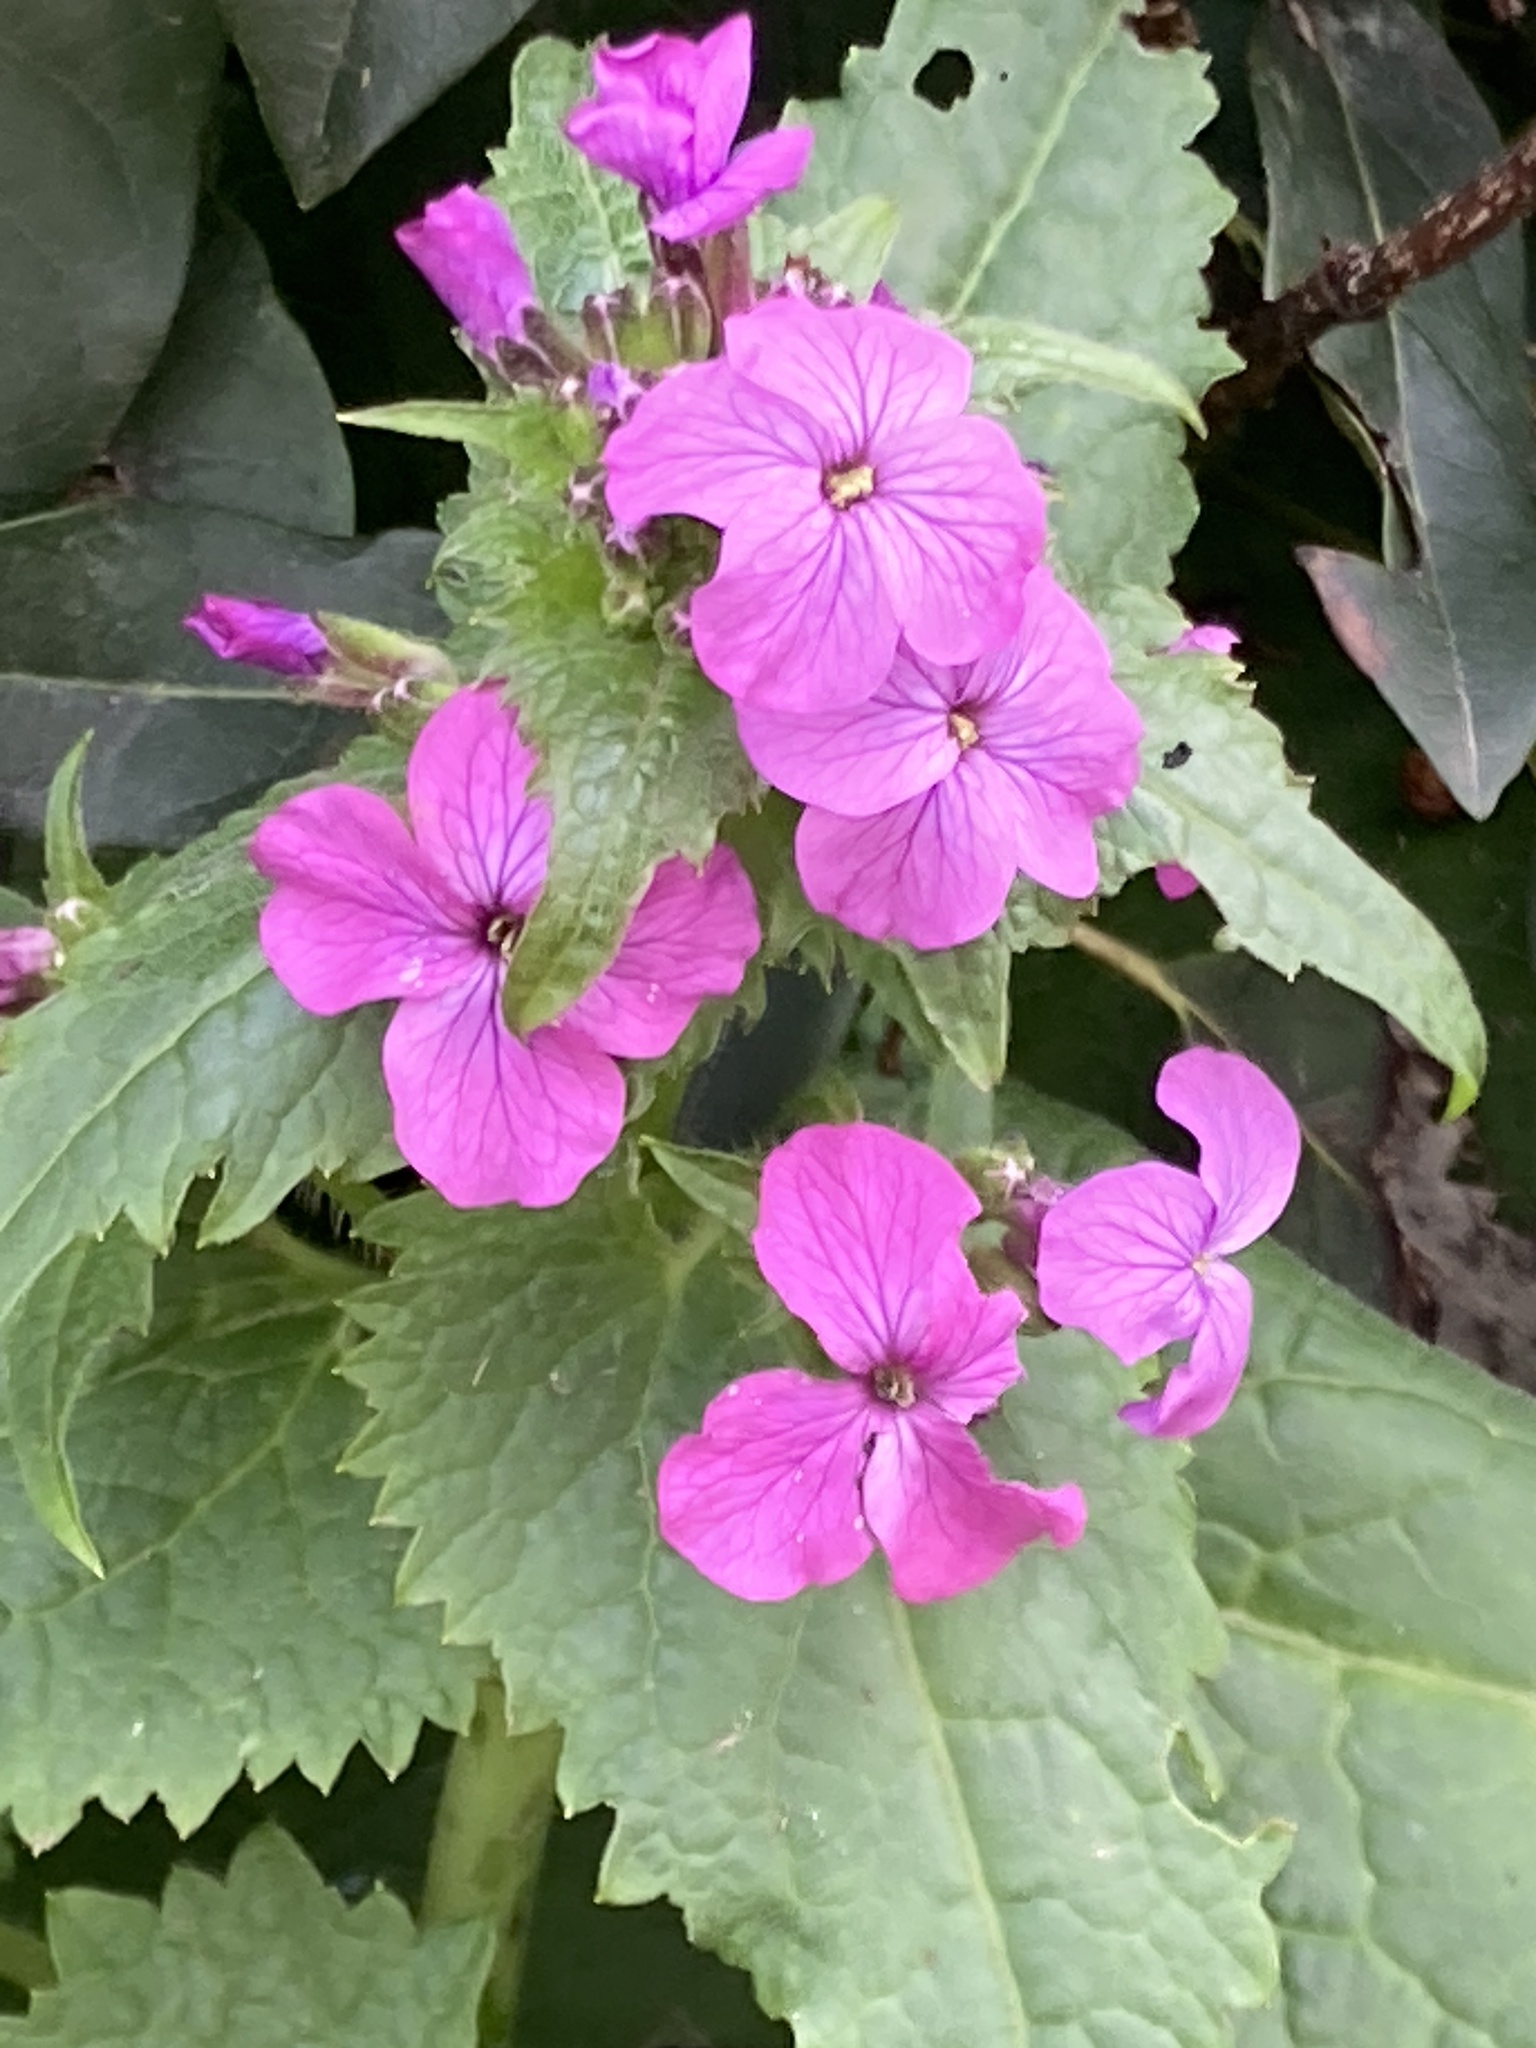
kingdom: Plantae
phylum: Tracheophyta
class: Magnoliopsida
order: Brassicales
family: Brassicaceae
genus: Lunaria
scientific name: Lunaria annua
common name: Honesty
